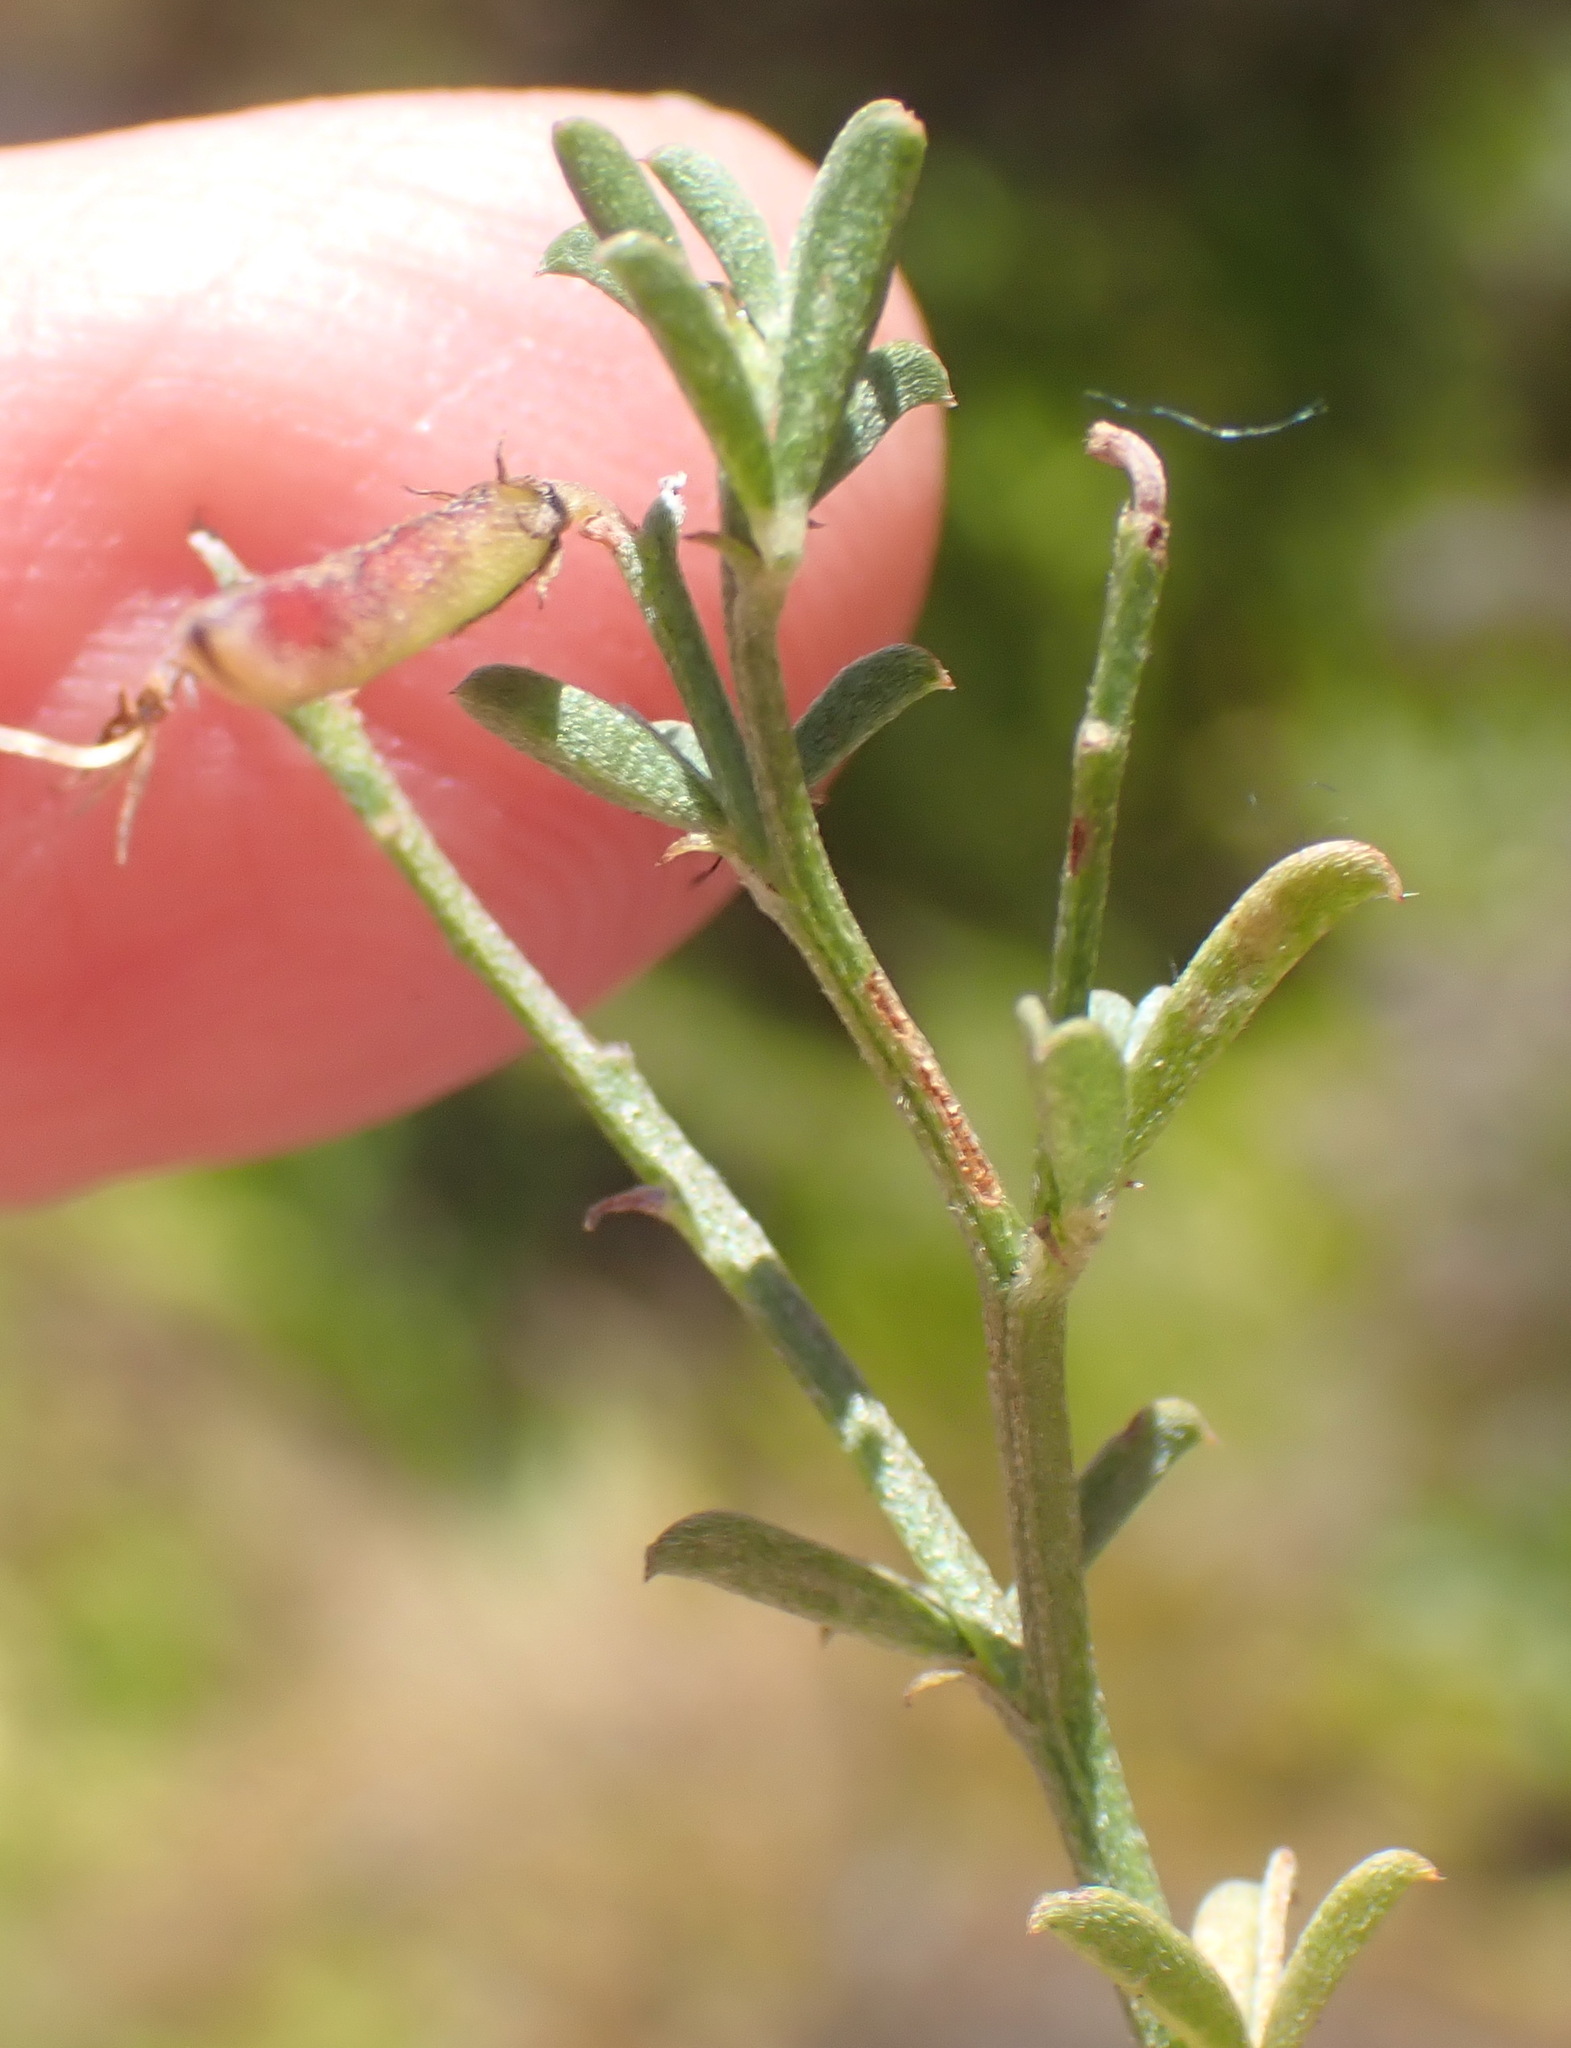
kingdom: Plantae
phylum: Tracheophyta
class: Magnoliopsida
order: Fabales
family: Fabaceae
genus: Indigofera
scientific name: Indigofera priorii
